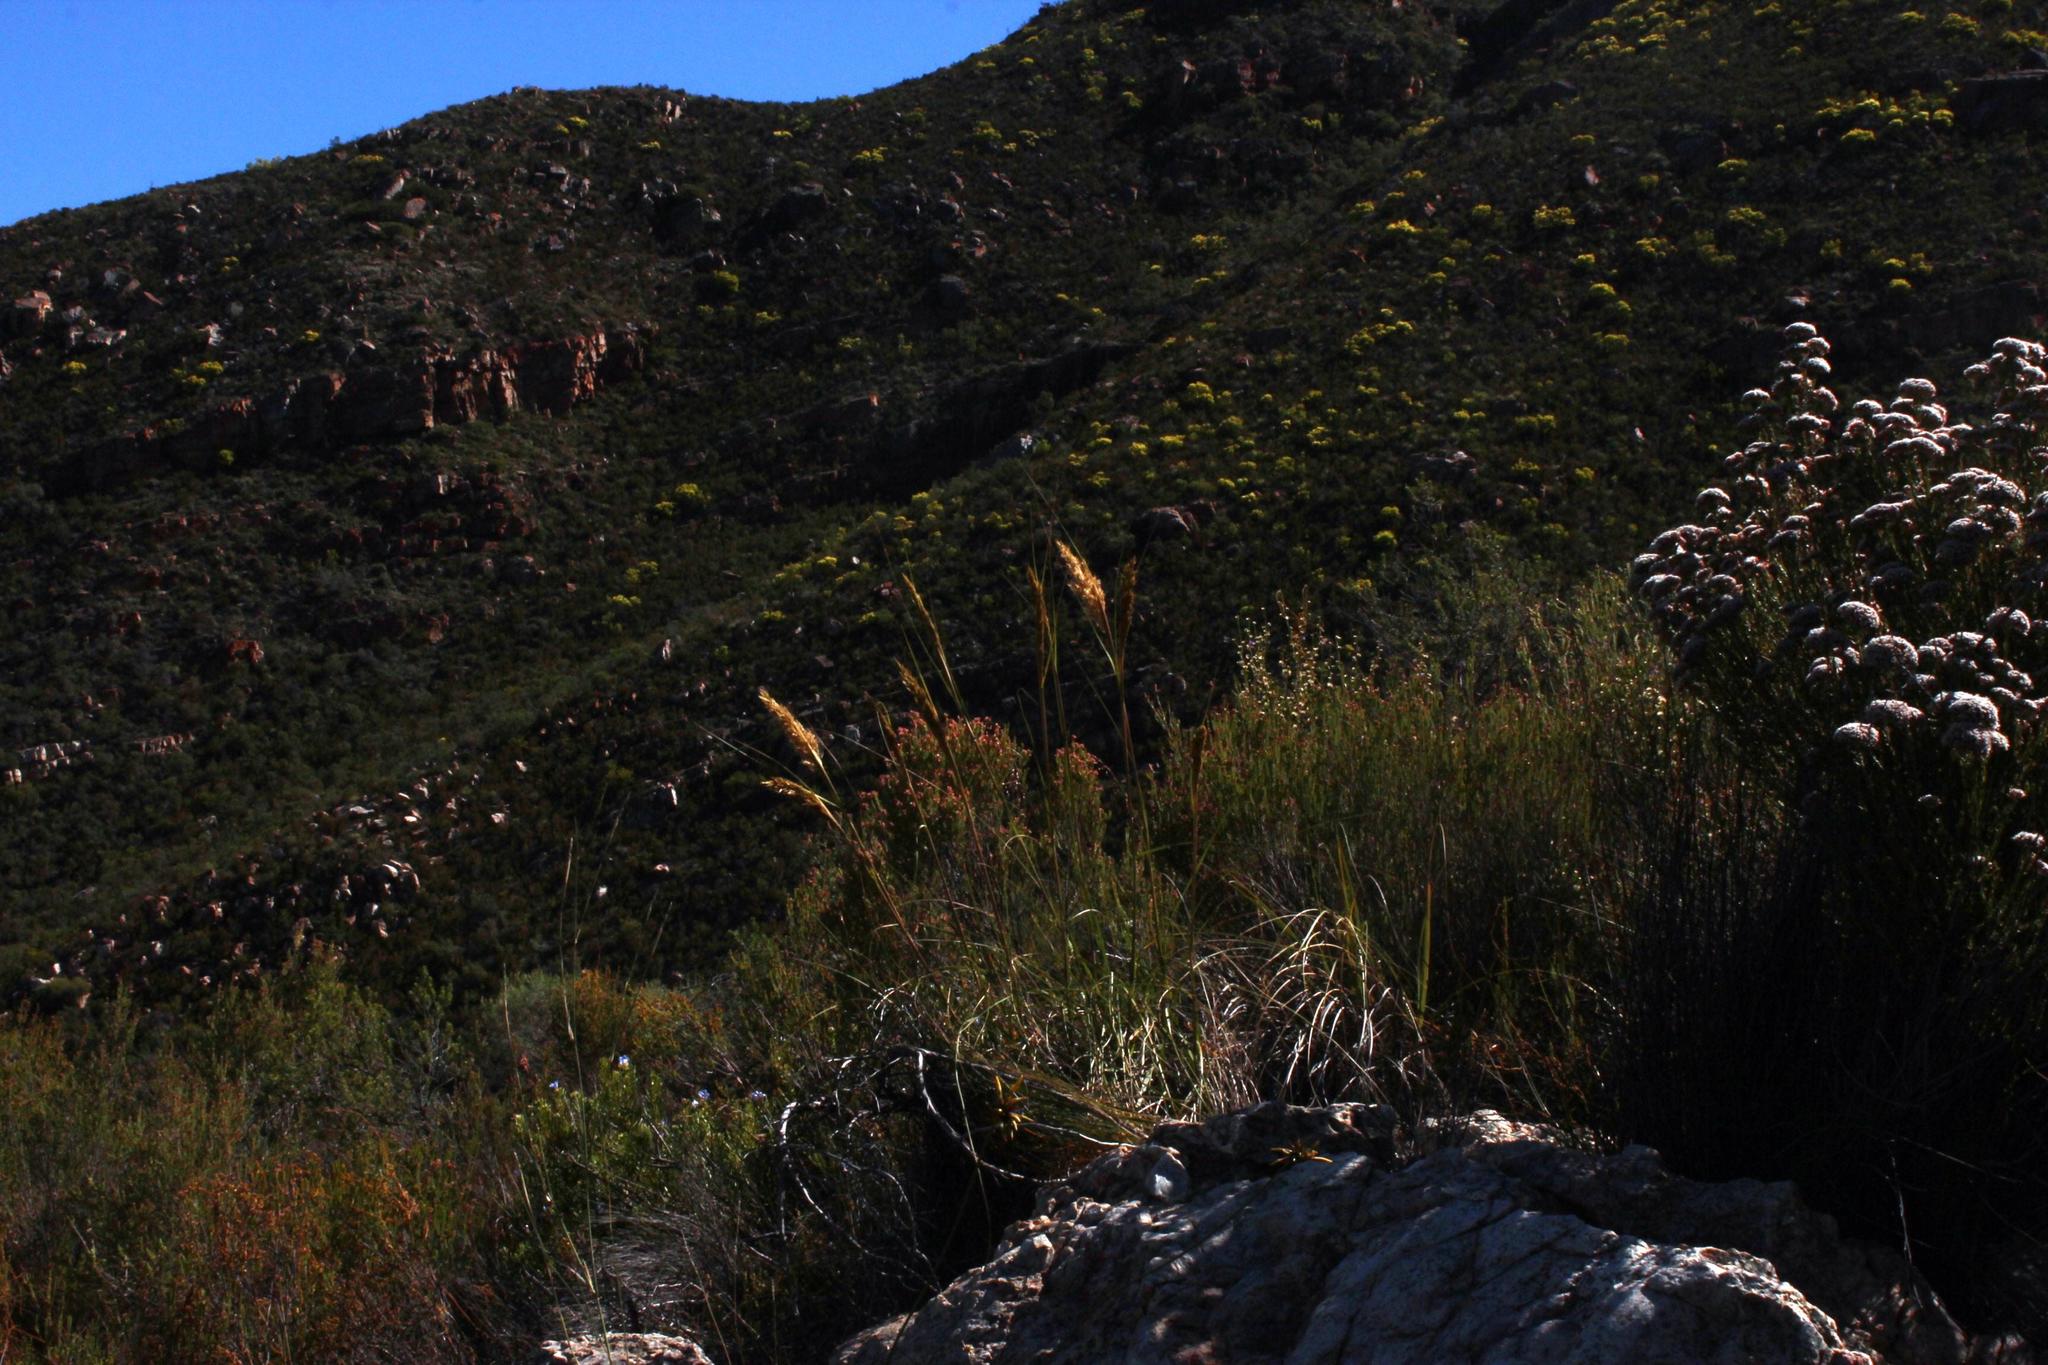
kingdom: Plantae
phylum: Tracheophyta
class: Liliopsida
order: Poales
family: Poaceae
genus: Capeochloa
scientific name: Capeochloa arundinacea
